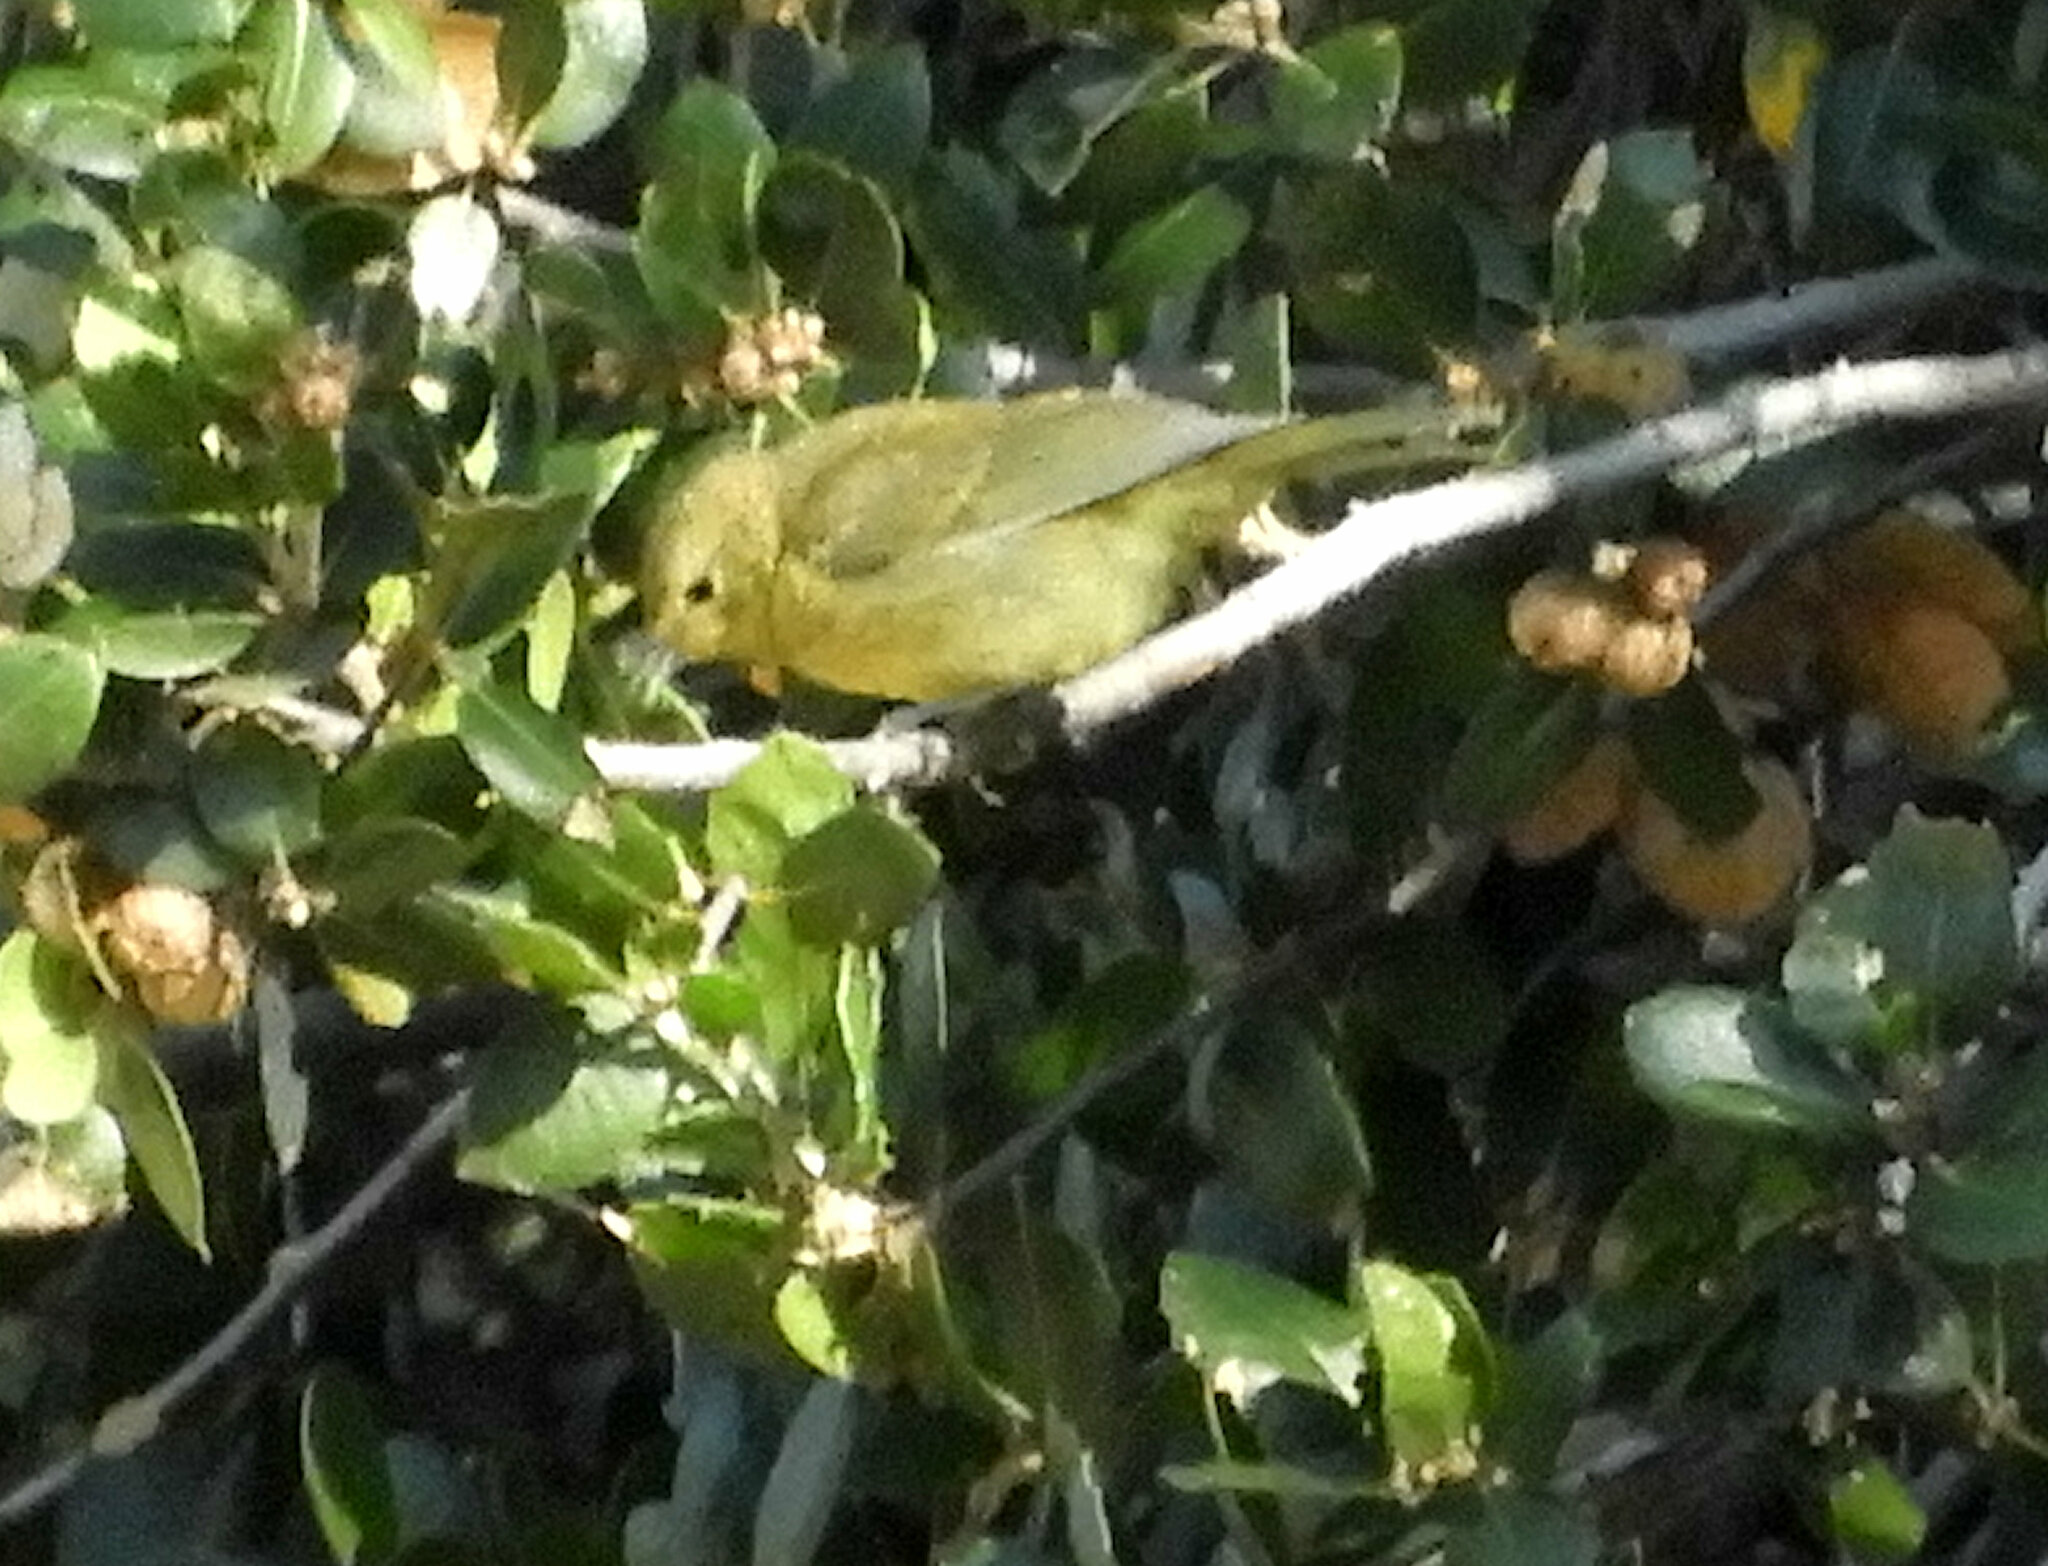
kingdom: Animalia
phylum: Chordata
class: Aves
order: Passeriformes
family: Parulidae
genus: Leiothlypis
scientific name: Leiothlypis celata
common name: Orange-crowned warbler
